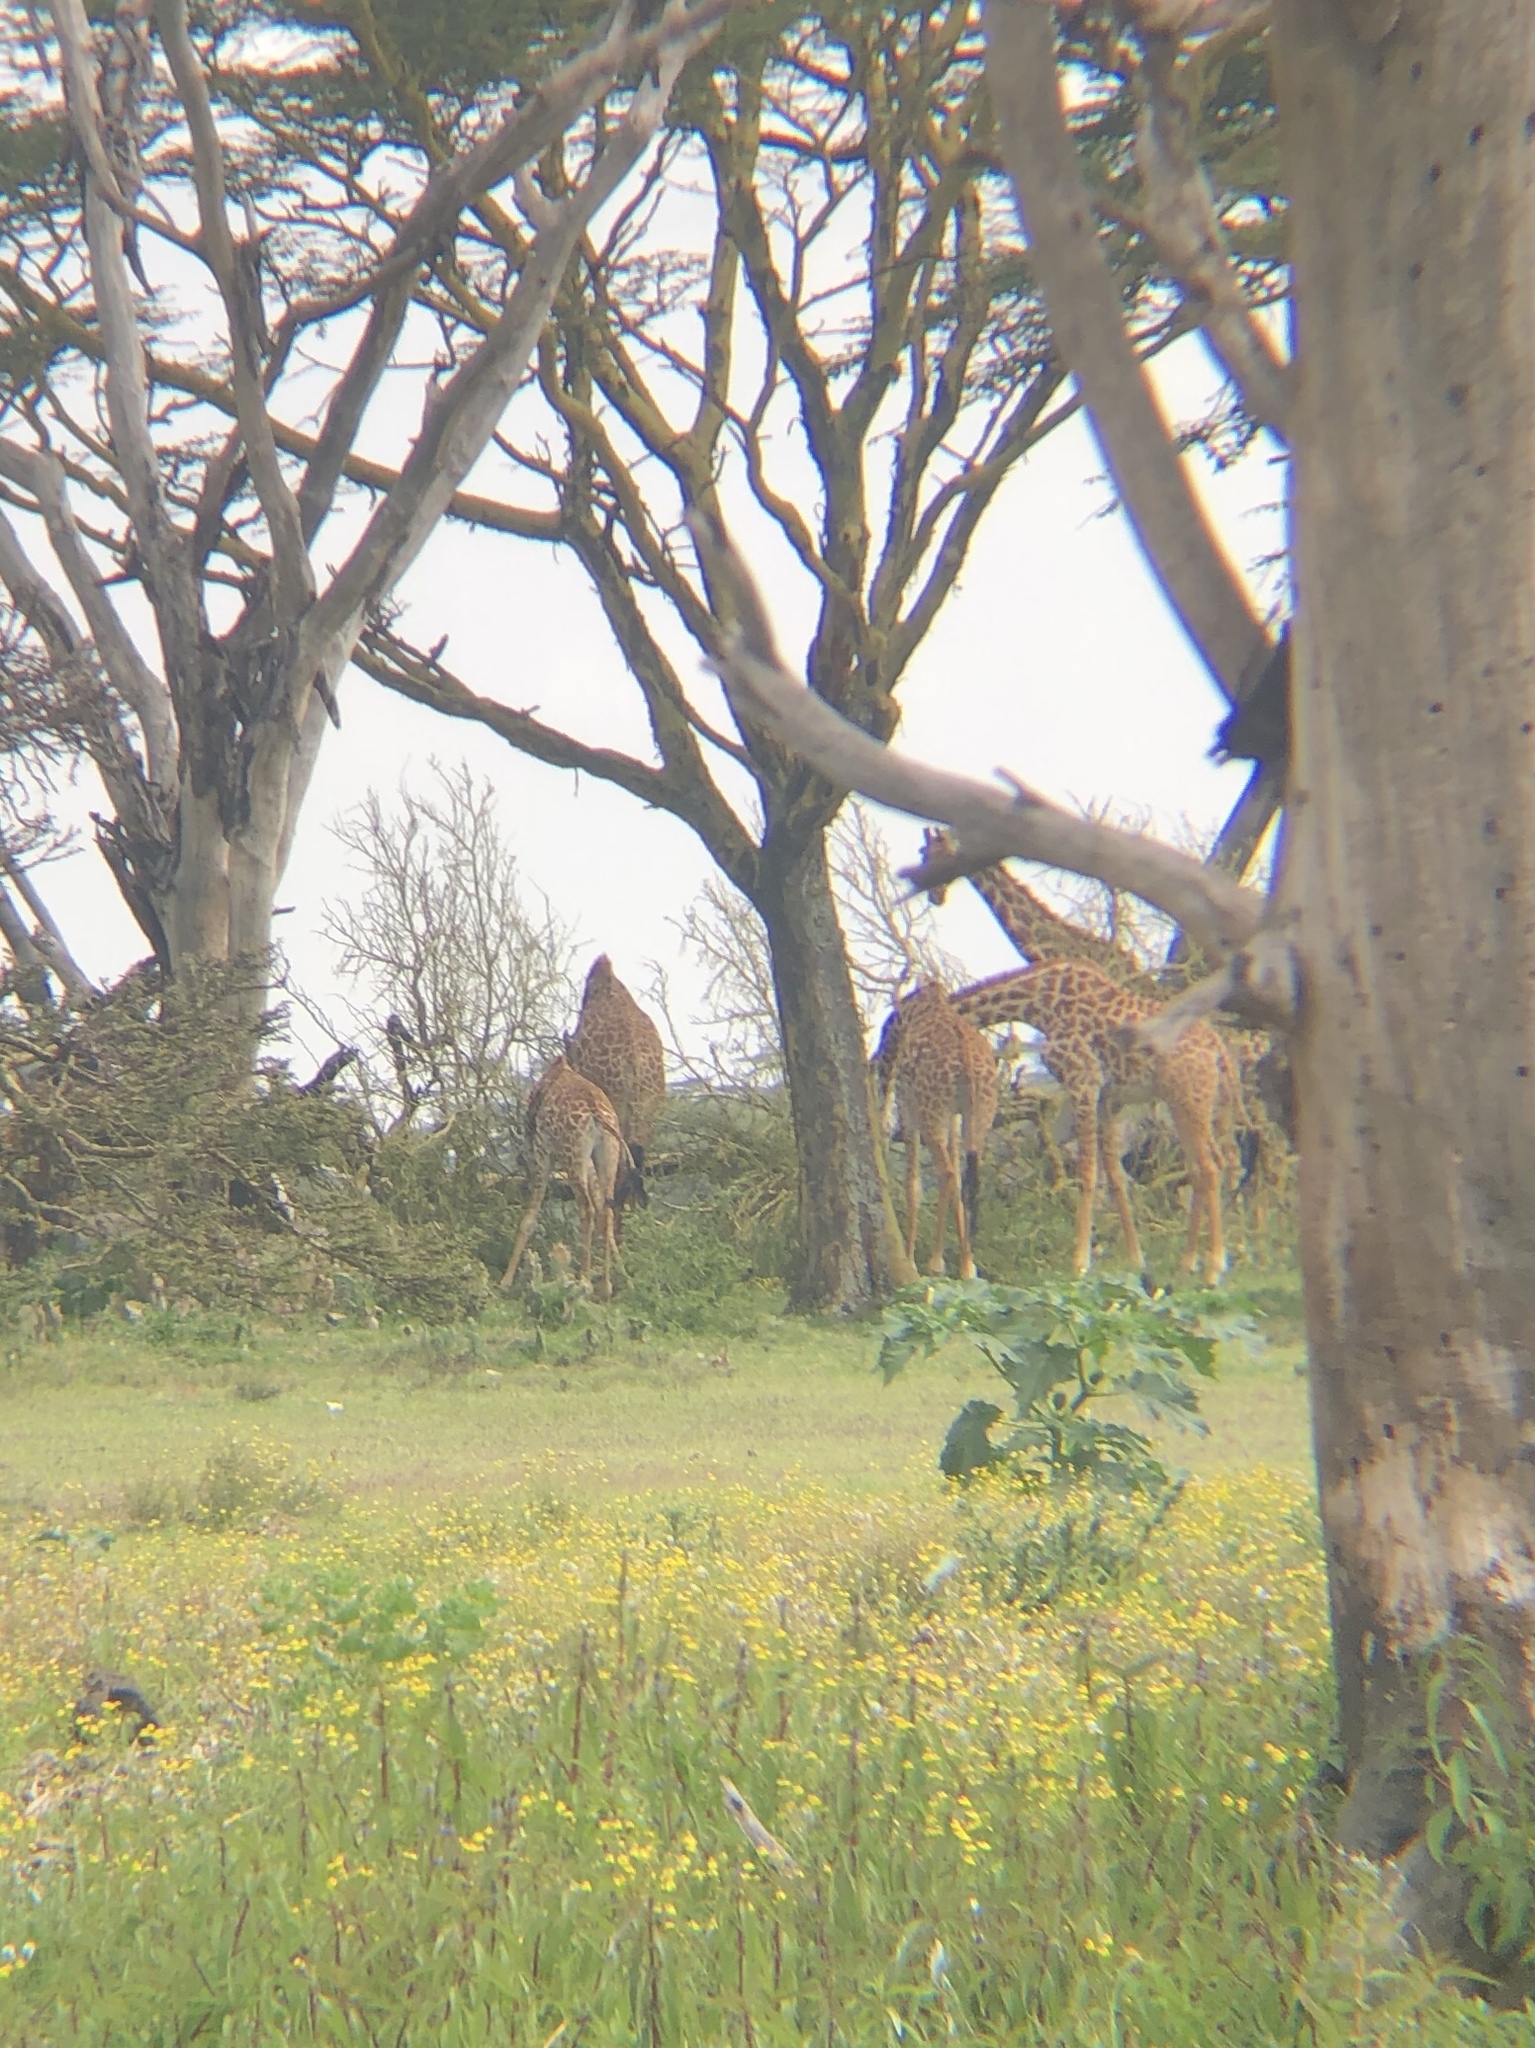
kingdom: Animalia
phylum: Chordata
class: Mammalia
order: Artiodactyla
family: Giraffidae
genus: Giraffa
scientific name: Giraffa tippelskirchi
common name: Masai giraffe
